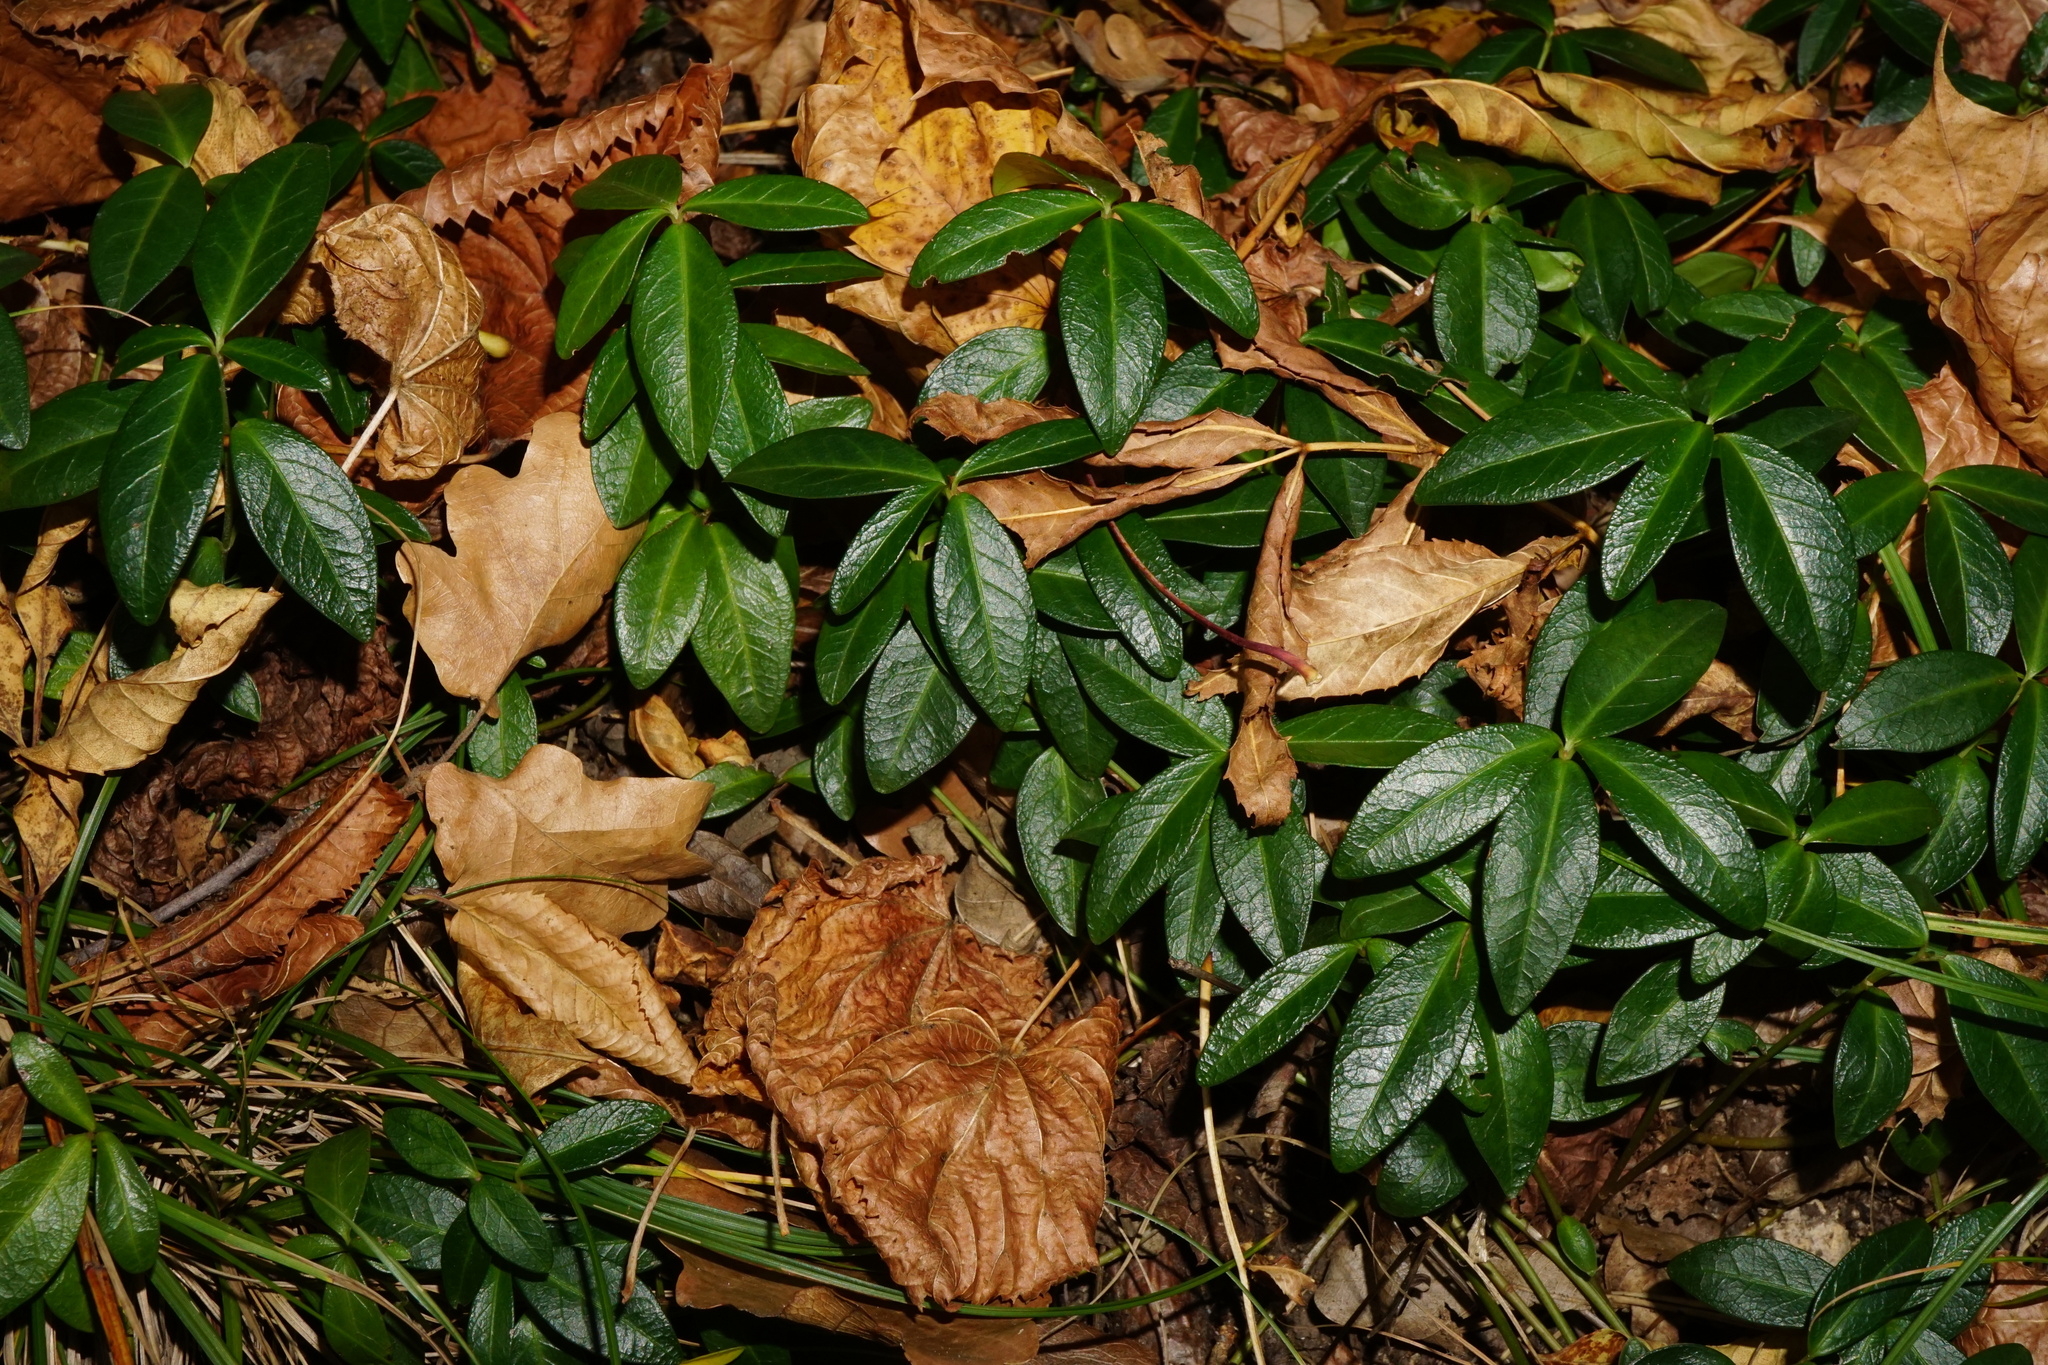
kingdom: Plantae
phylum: Tracheophyta
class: Magnoliopsida
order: Gentianales
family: Apocynaceae
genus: Vinca
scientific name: Vinca minor
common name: Lesser periwinkle
